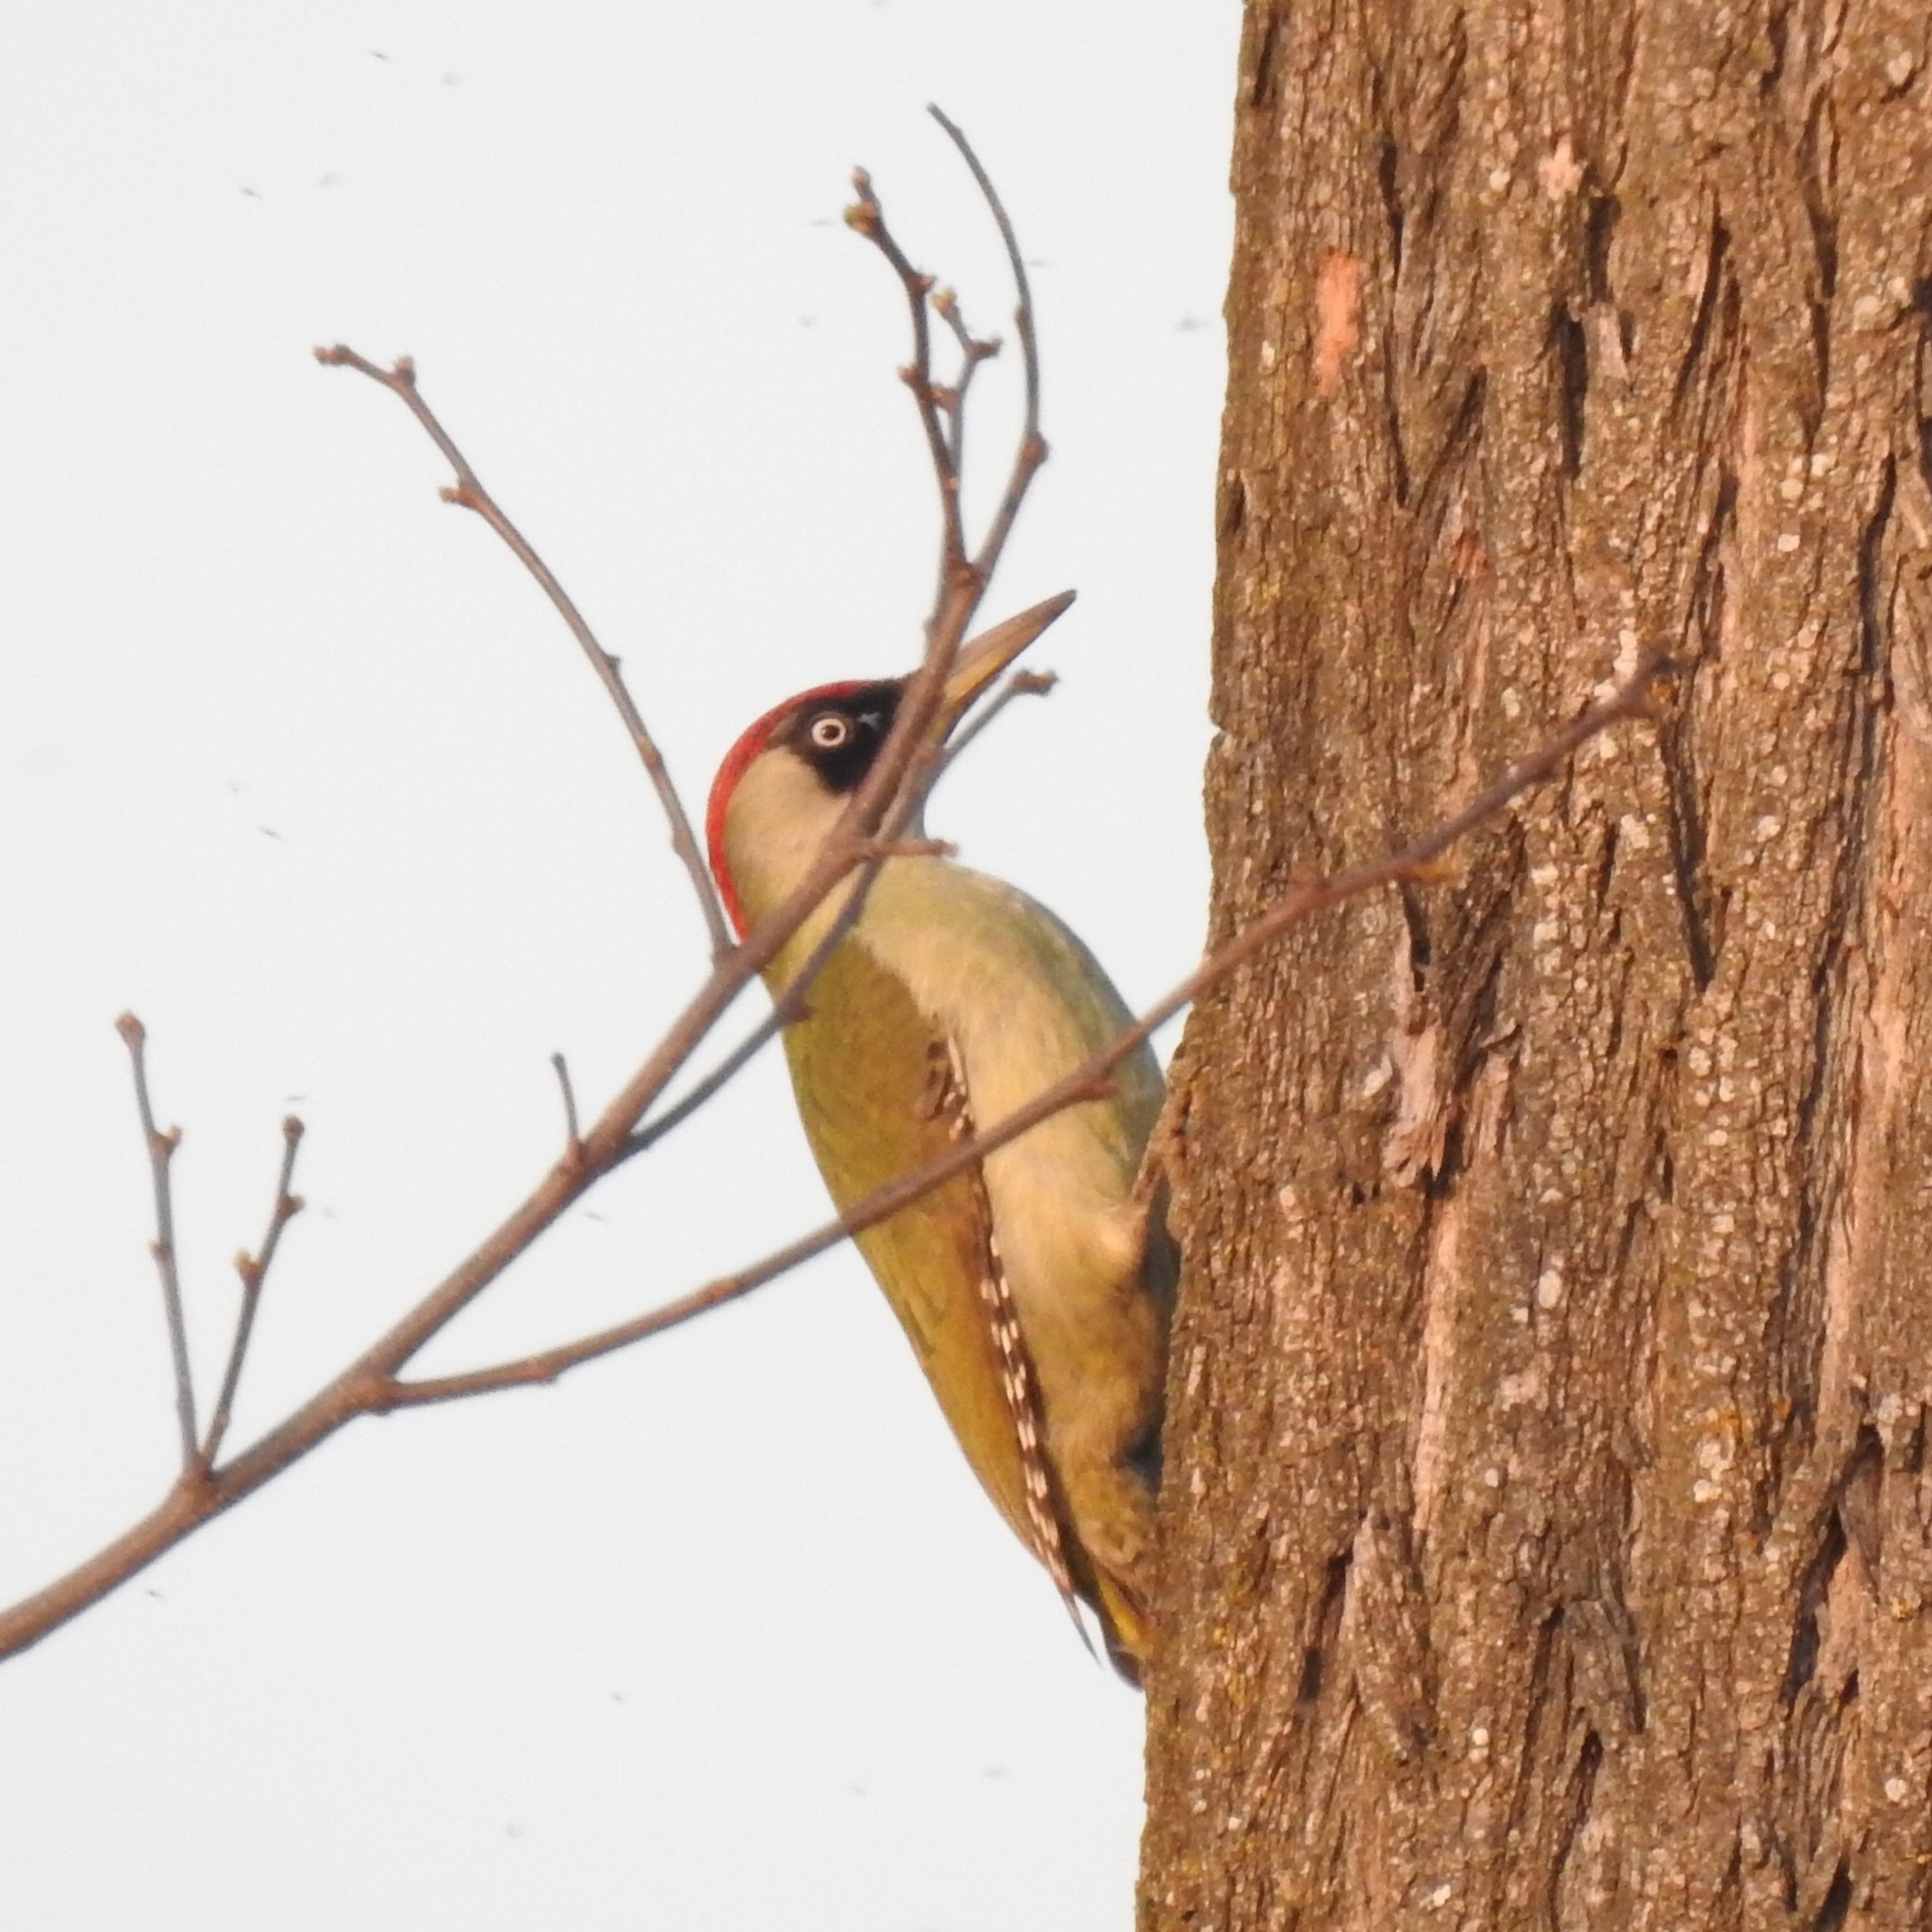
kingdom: Animalia
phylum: Chordata
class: Aves
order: Piciformes
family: Picidae
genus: Picus
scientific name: Picus viridis
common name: European green woodpecker
